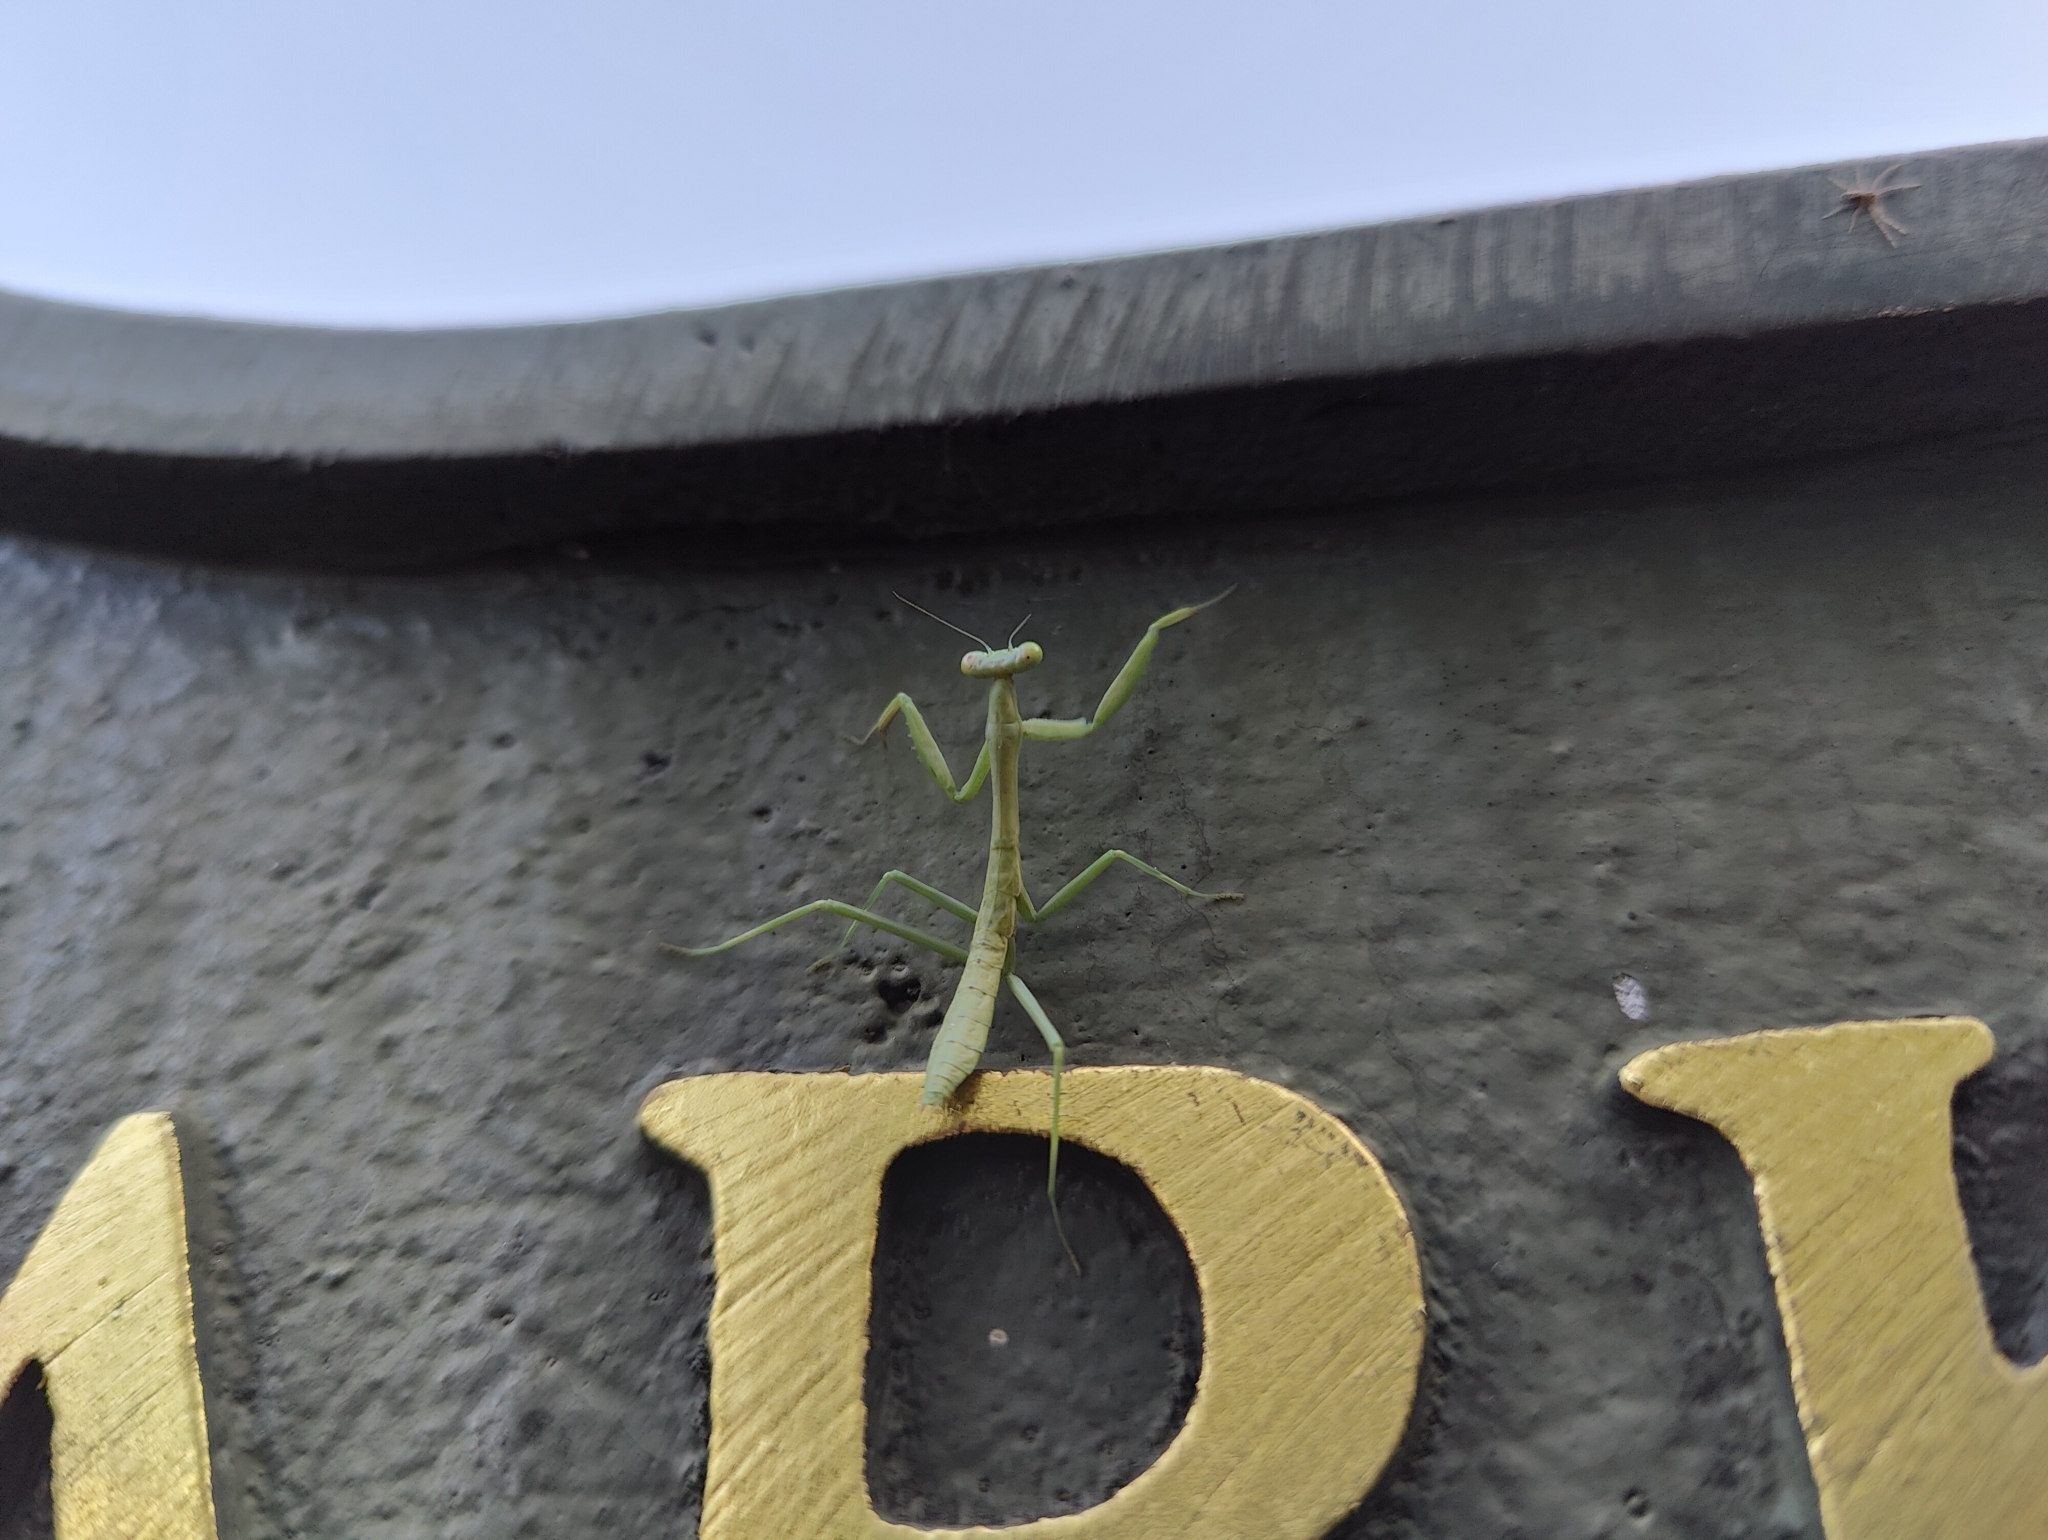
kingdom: Animalia
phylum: Arthropoda
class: Insecta
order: Mantodea
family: Mantidae
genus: Stagmomantis
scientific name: Stagmomantis carolina
